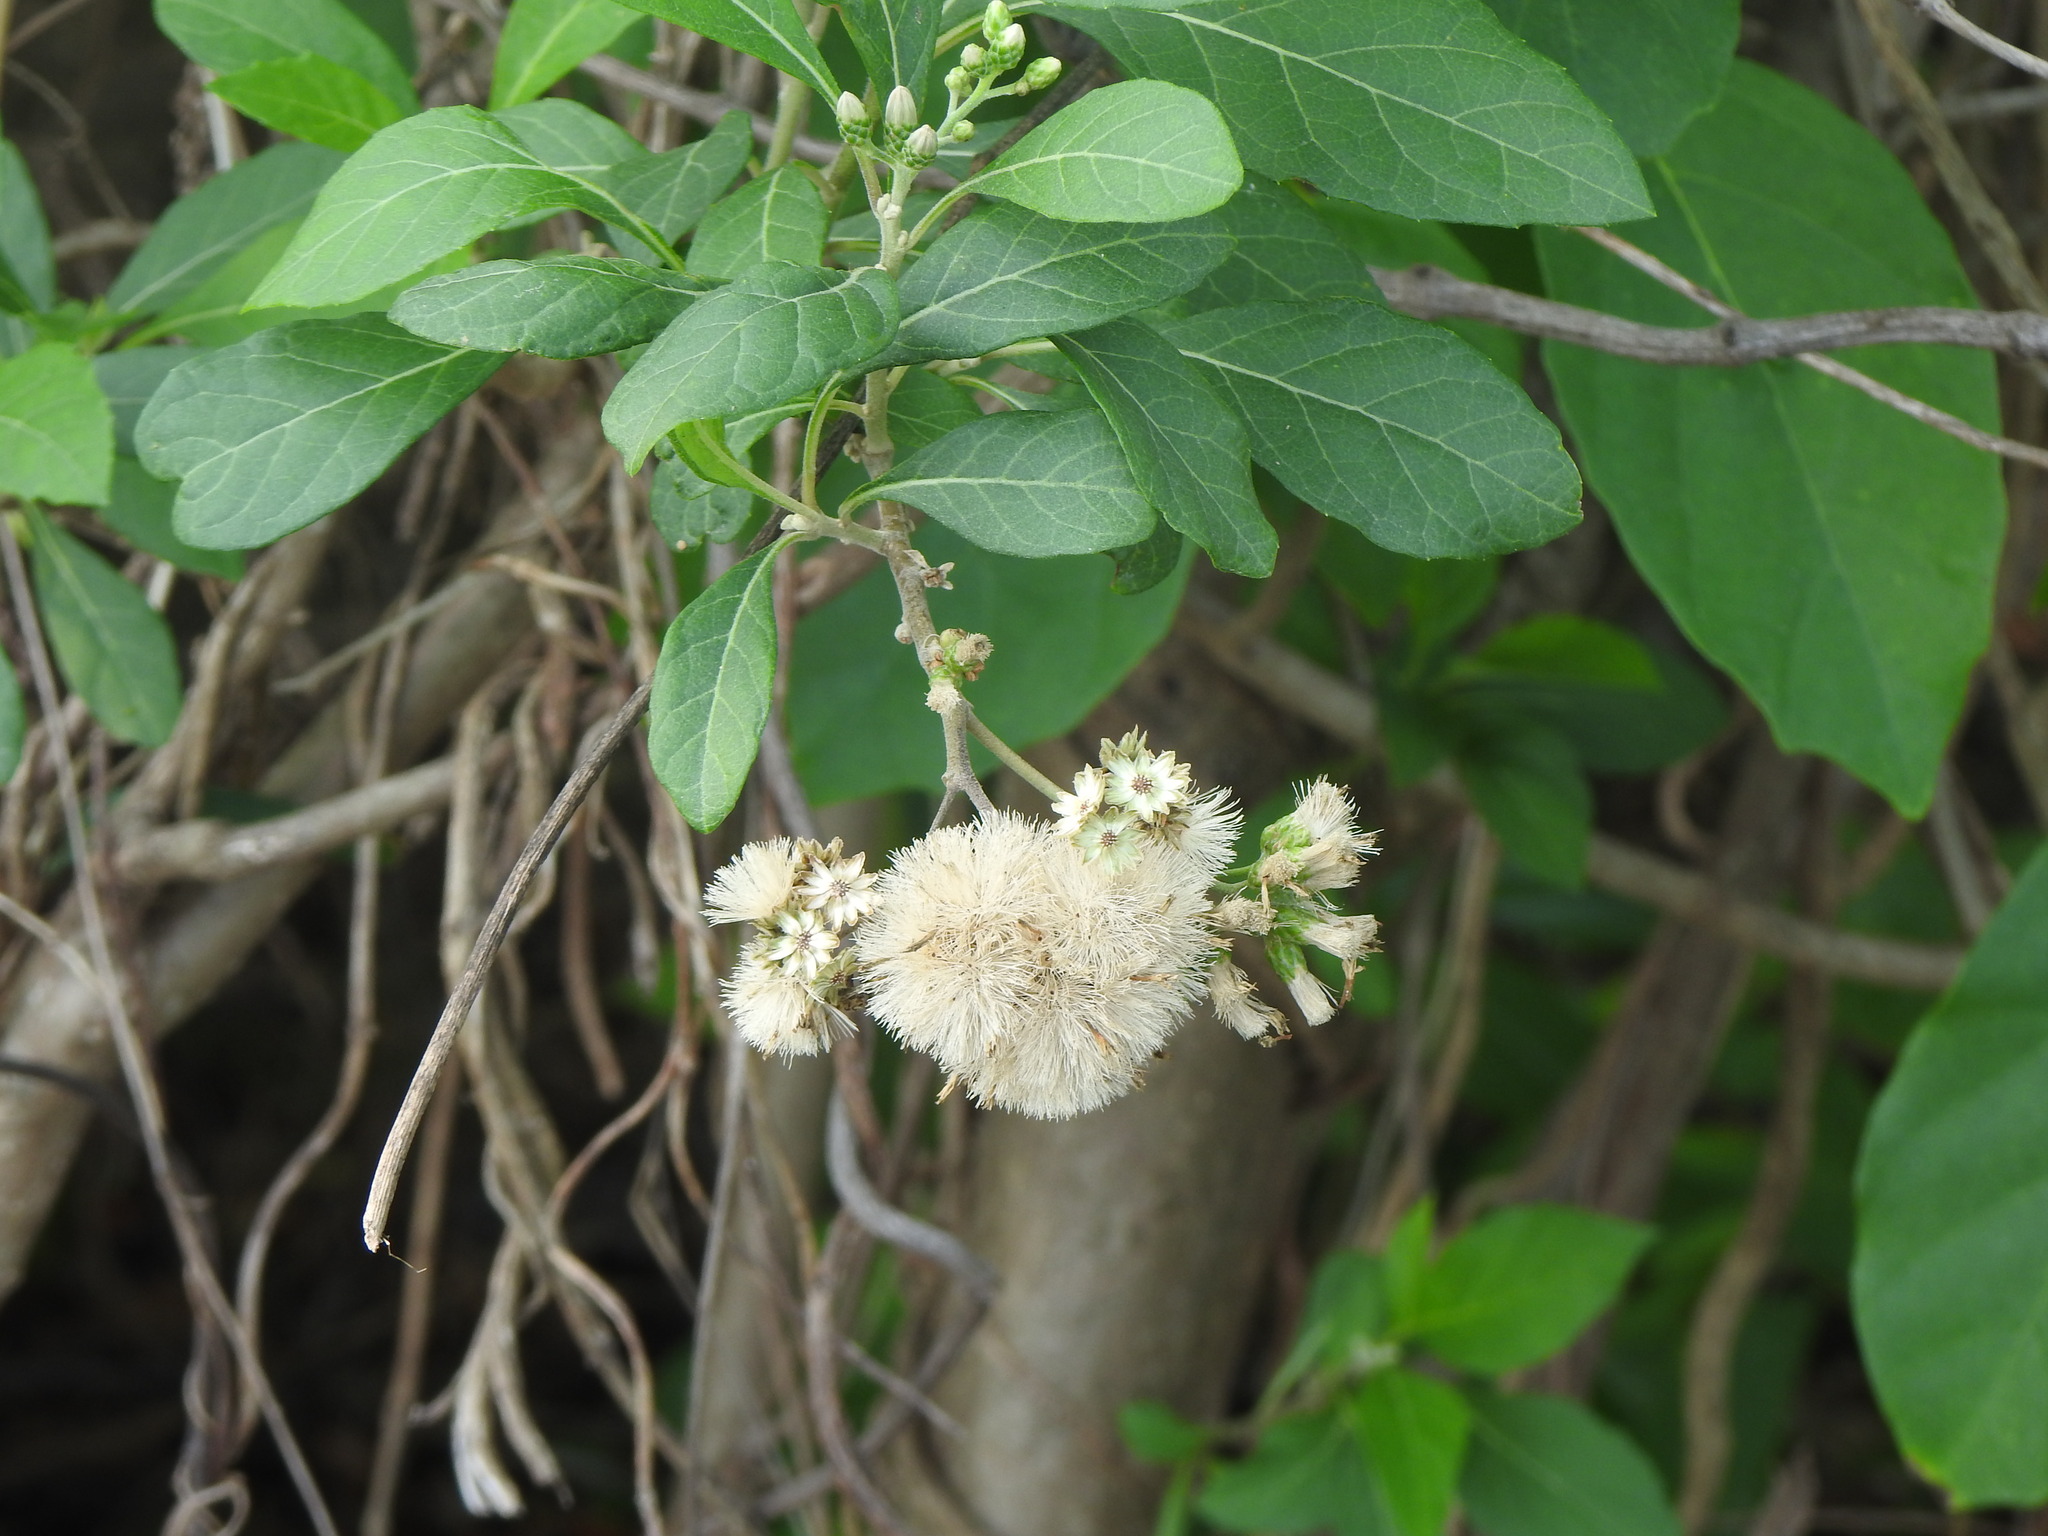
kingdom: Plantae
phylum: Tracheophyta
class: Magnoliopsida
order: Asterales
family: Asteraceae
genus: Gymnanthemum
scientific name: Gymnanthemum amygdalinum
